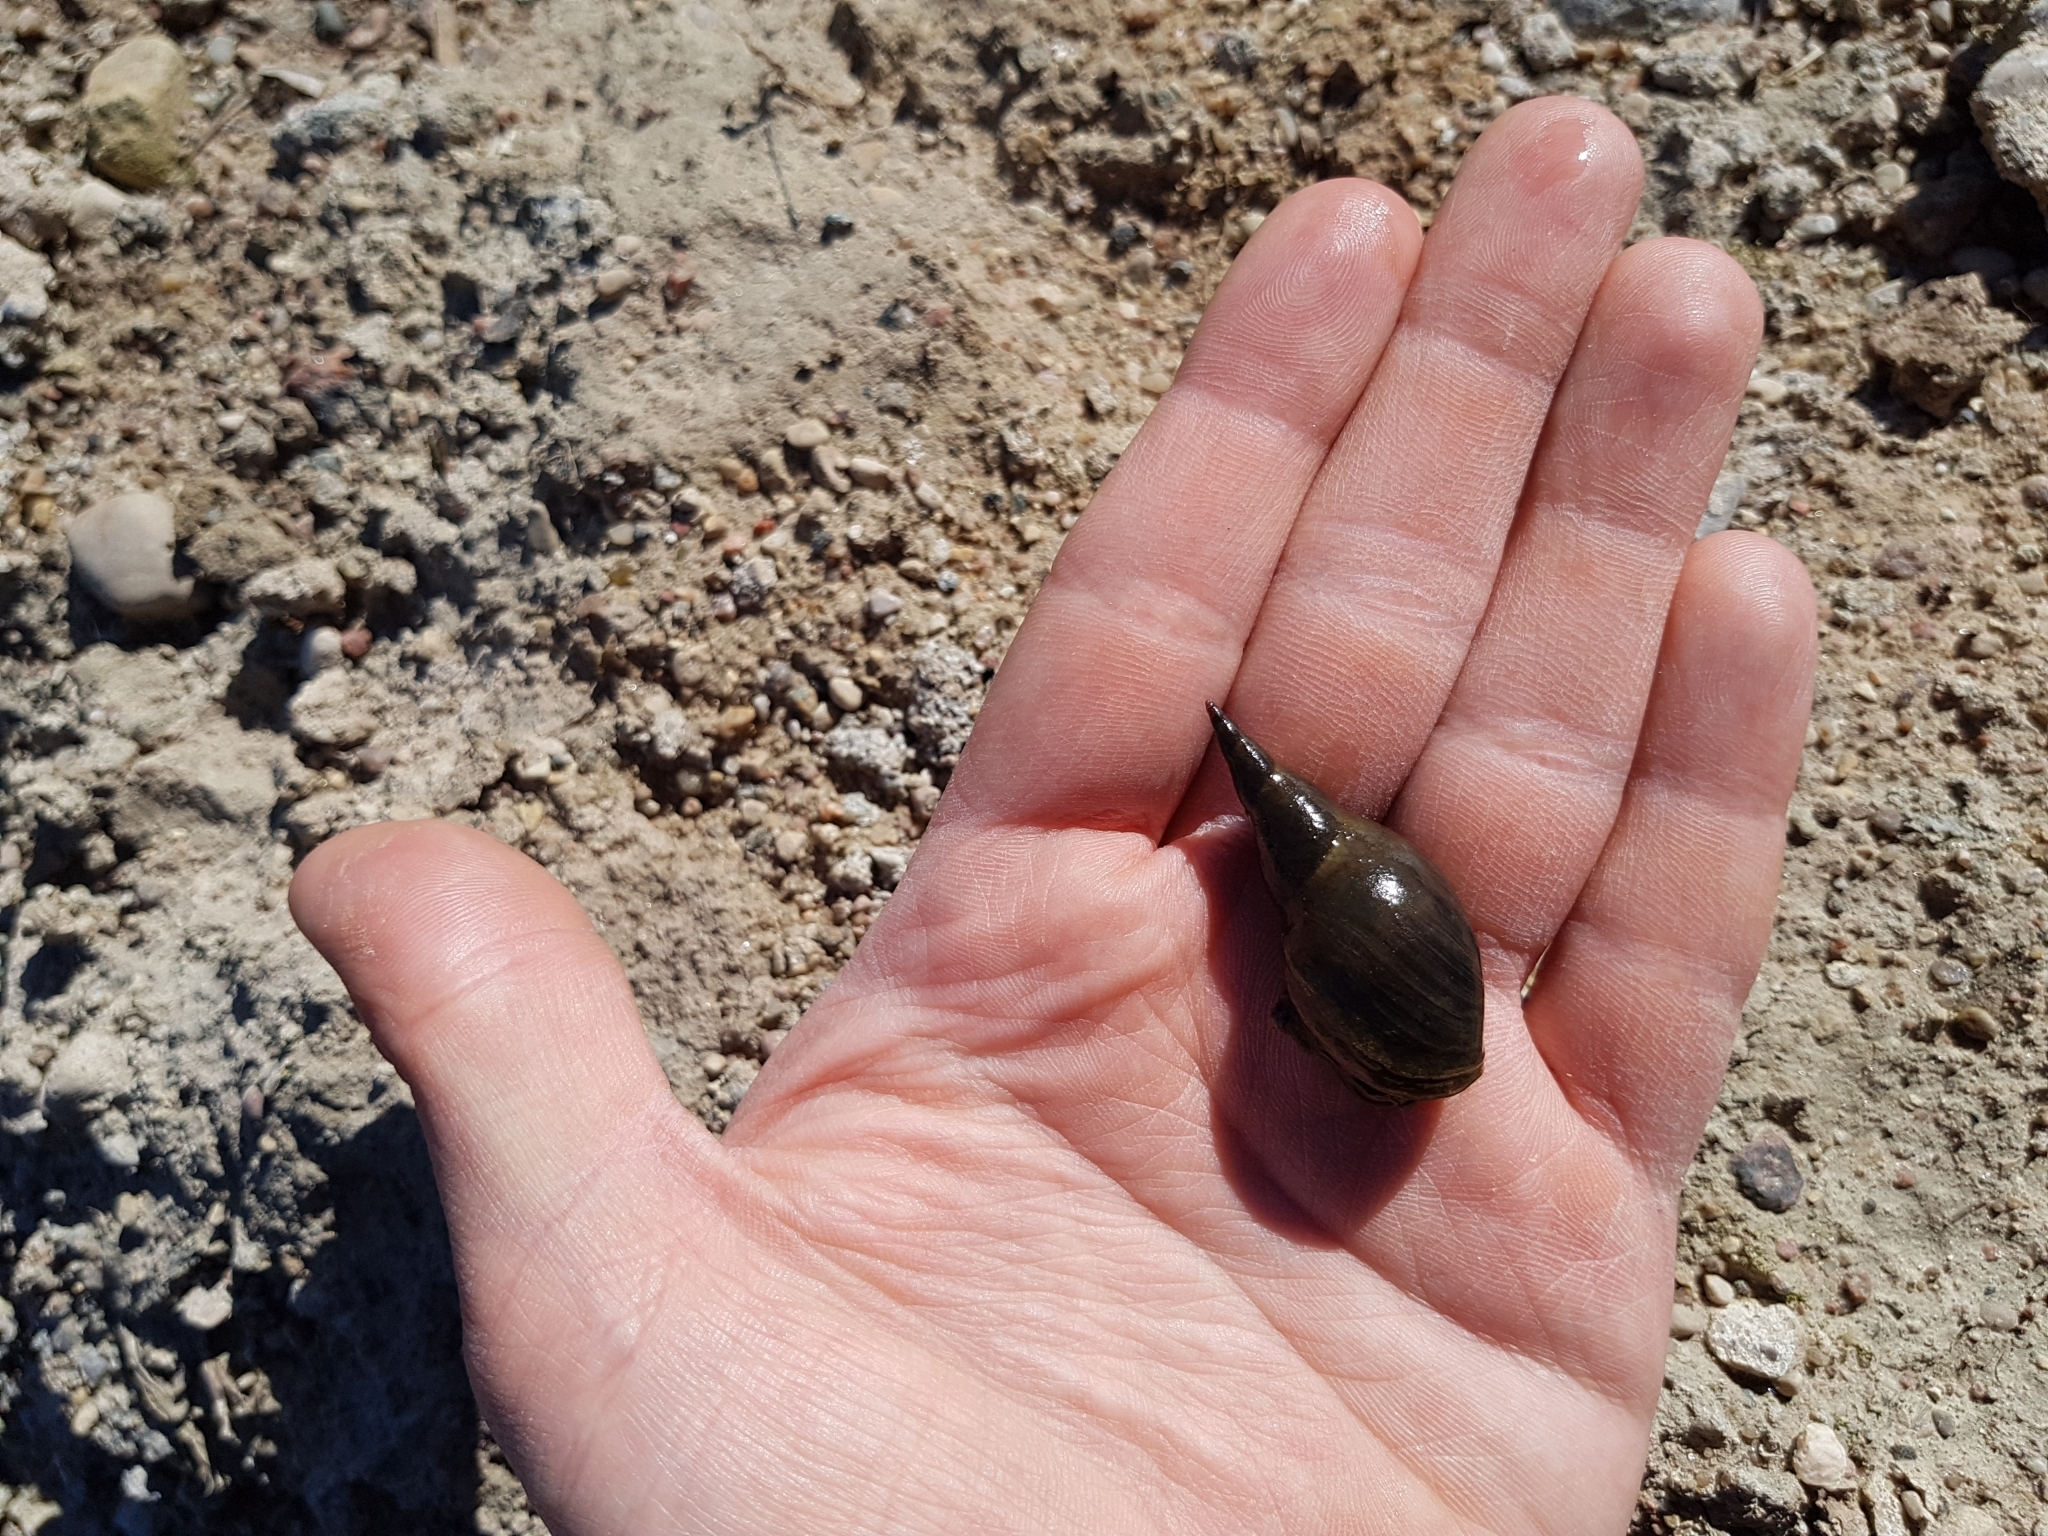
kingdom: Animalia
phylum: Mollusca
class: Gastropoda
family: Lymnaeidae
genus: Lymnaea
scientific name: Lymnaea stagnalis
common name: Great pond snail
